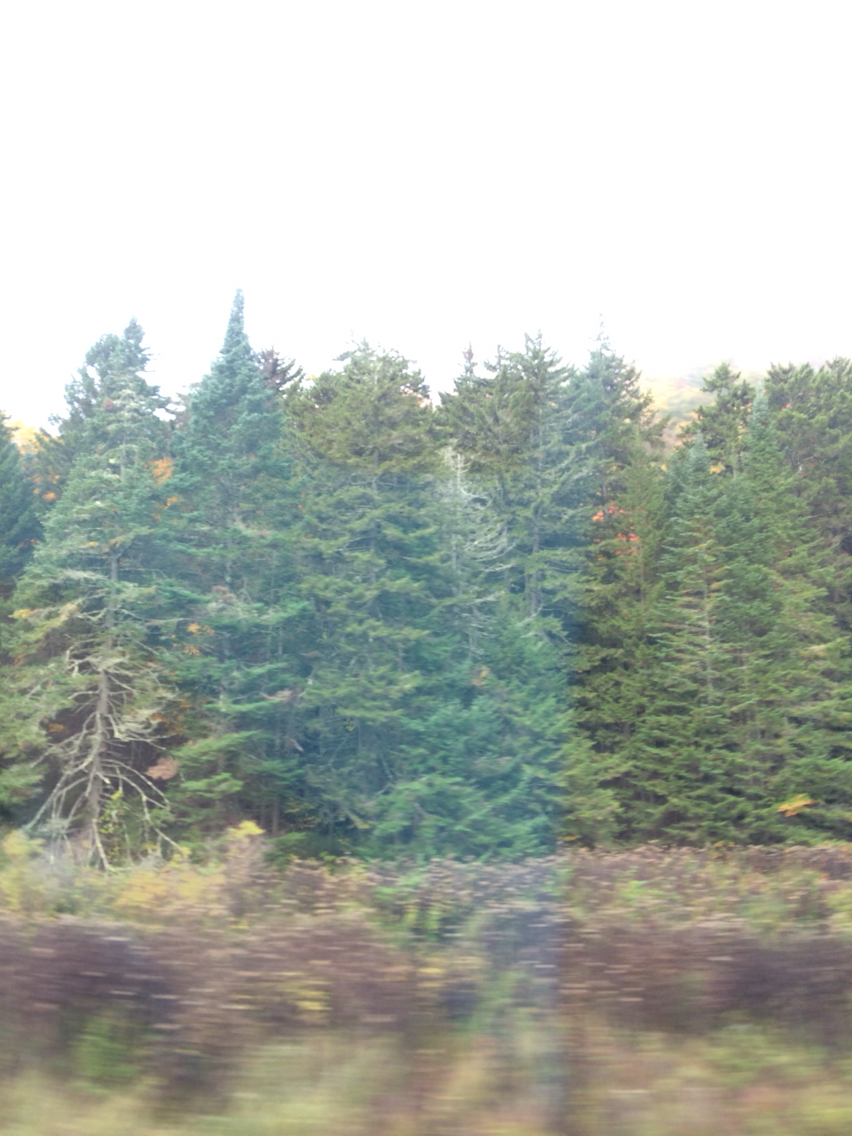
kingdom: Plantae
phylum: Tracheophyta
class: Pinopsida
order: Pinales
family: Pinaceae
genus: Abies
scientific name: Abies balsamea
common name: Balsam fir
